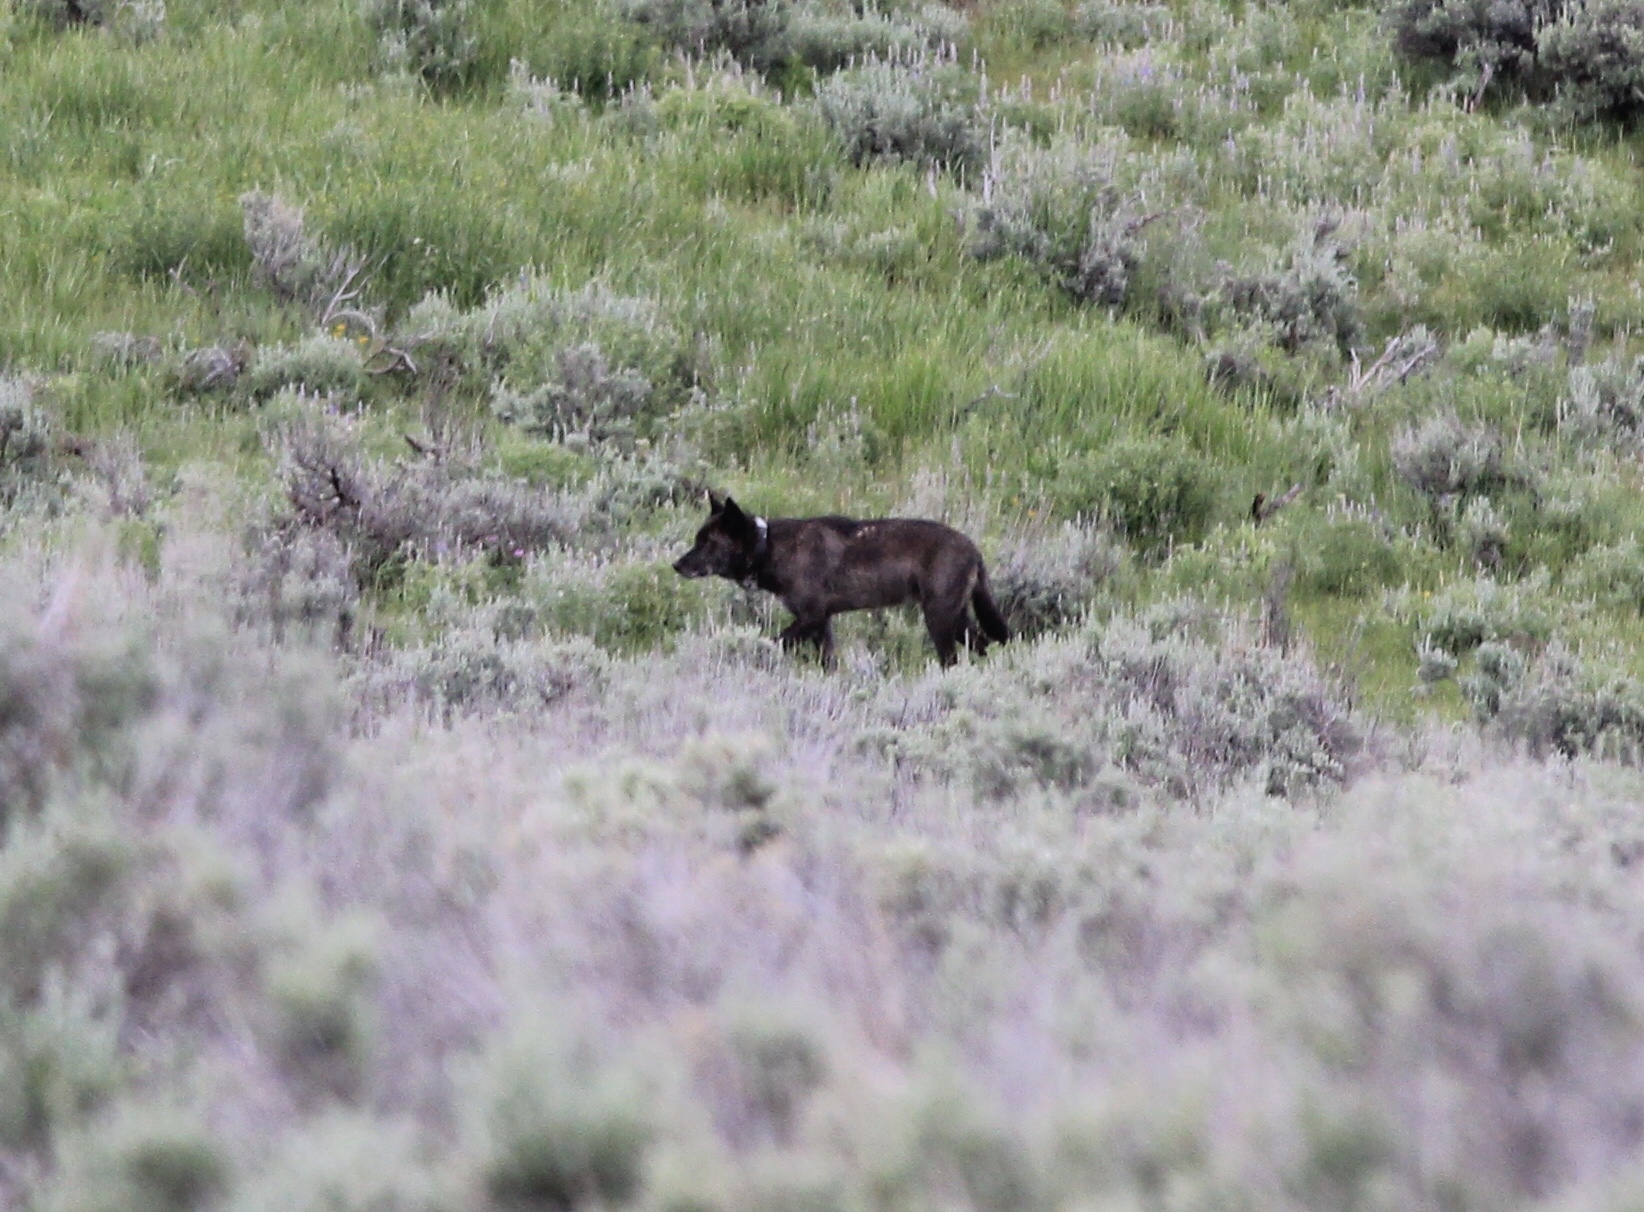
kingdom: Animalia
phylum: Chordata
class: Mammalia
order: Carnivora
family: Canidae
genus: Canis
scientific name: Canis lupus
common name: Gray wolf
